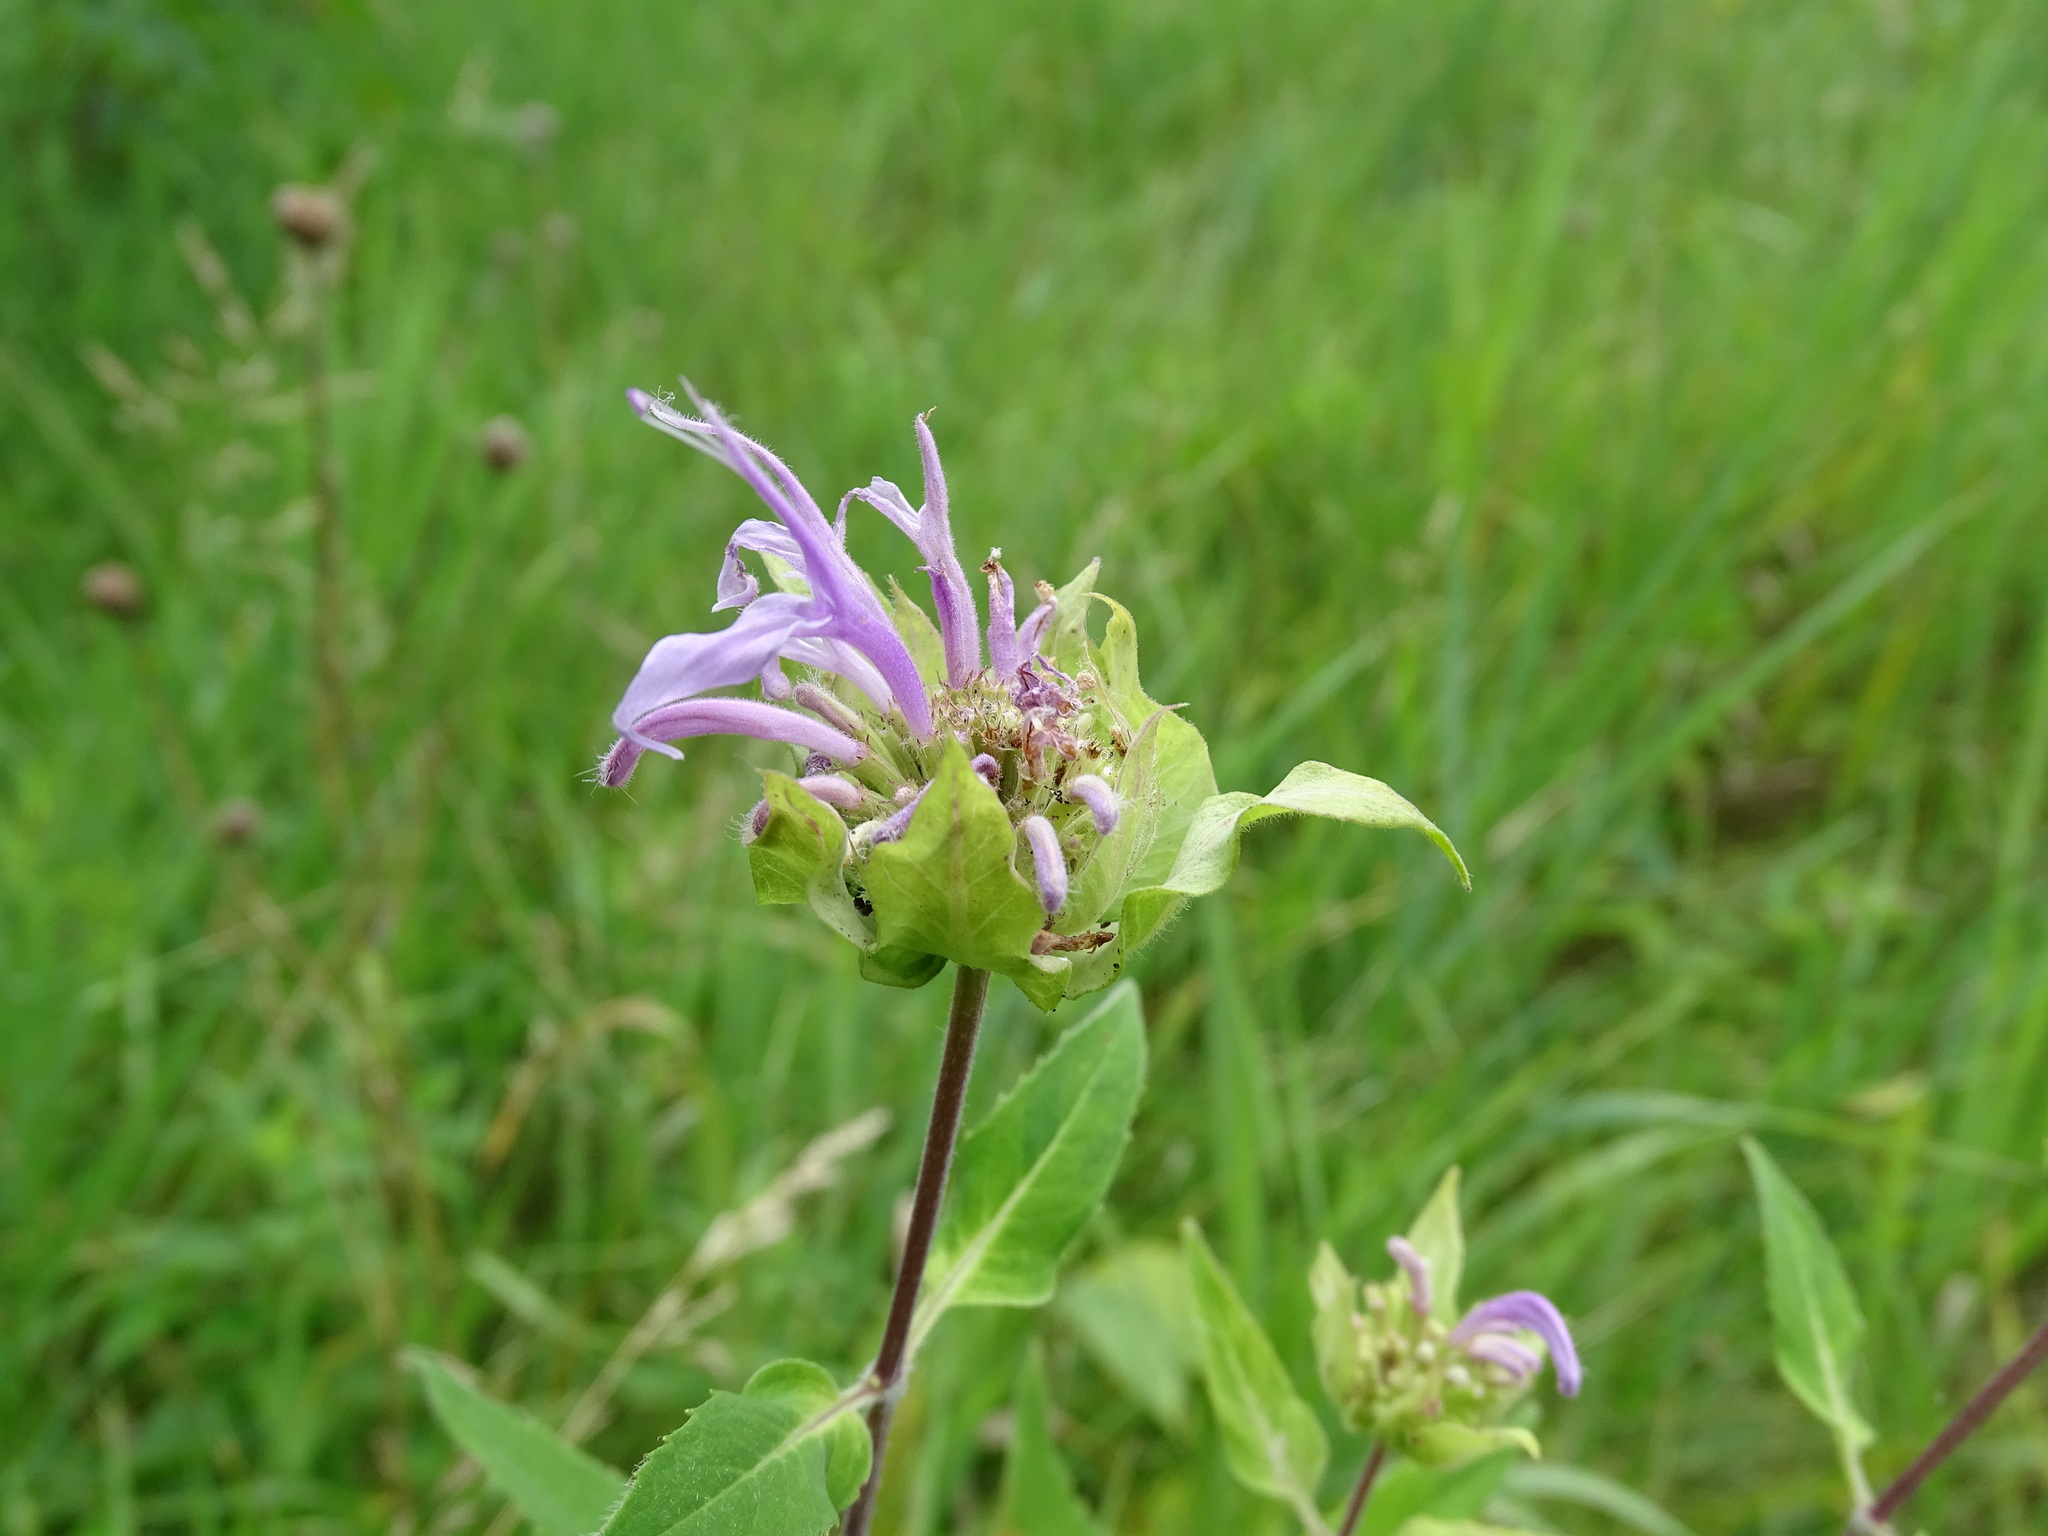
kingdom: Plantae
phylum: Tracheophyta
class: Magnoliopsida
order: Lamiales
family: Lamiaceae
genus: Monarda
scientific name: Monarda fistulosa
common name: Purple beebalm
